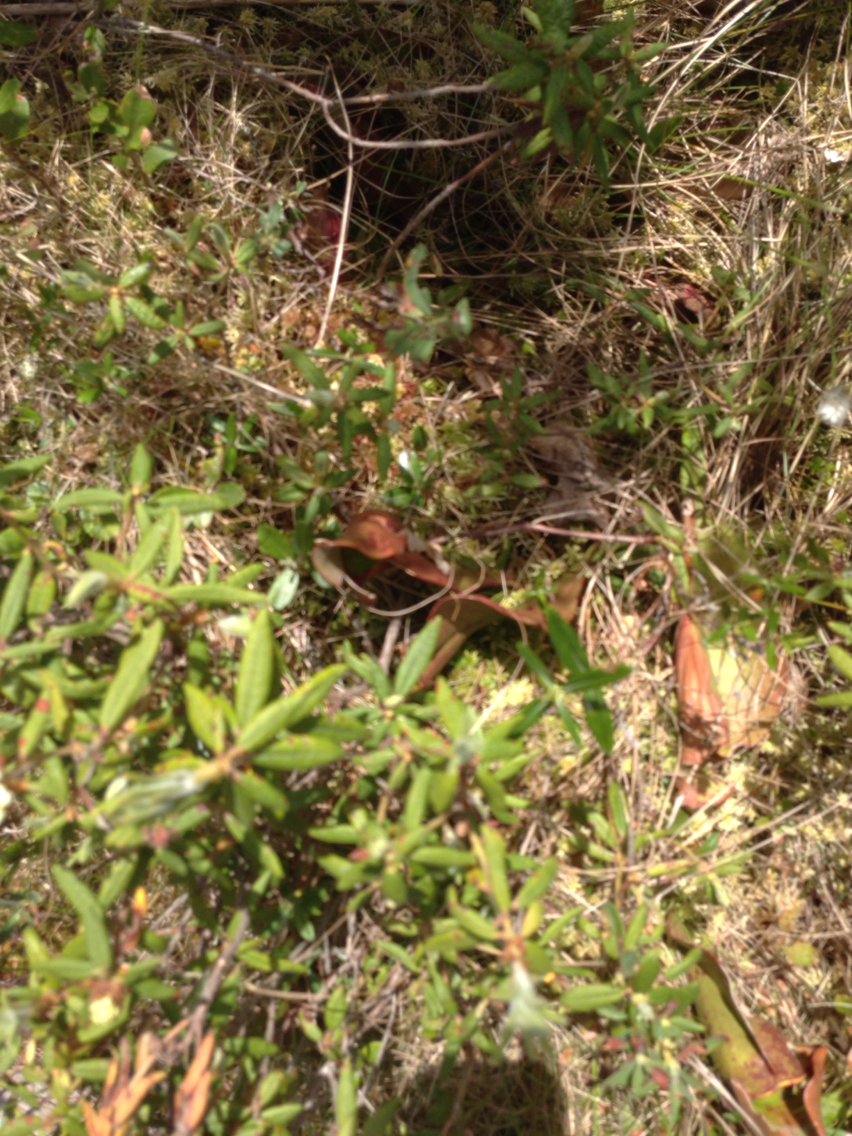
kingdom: Plantae
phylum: Tracheophyta
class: Magnoliopsida
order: Ericales
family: Sarraceniaceae
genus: Sarracenia
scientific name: Sarracenia purpurea
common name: Pitcherplant
